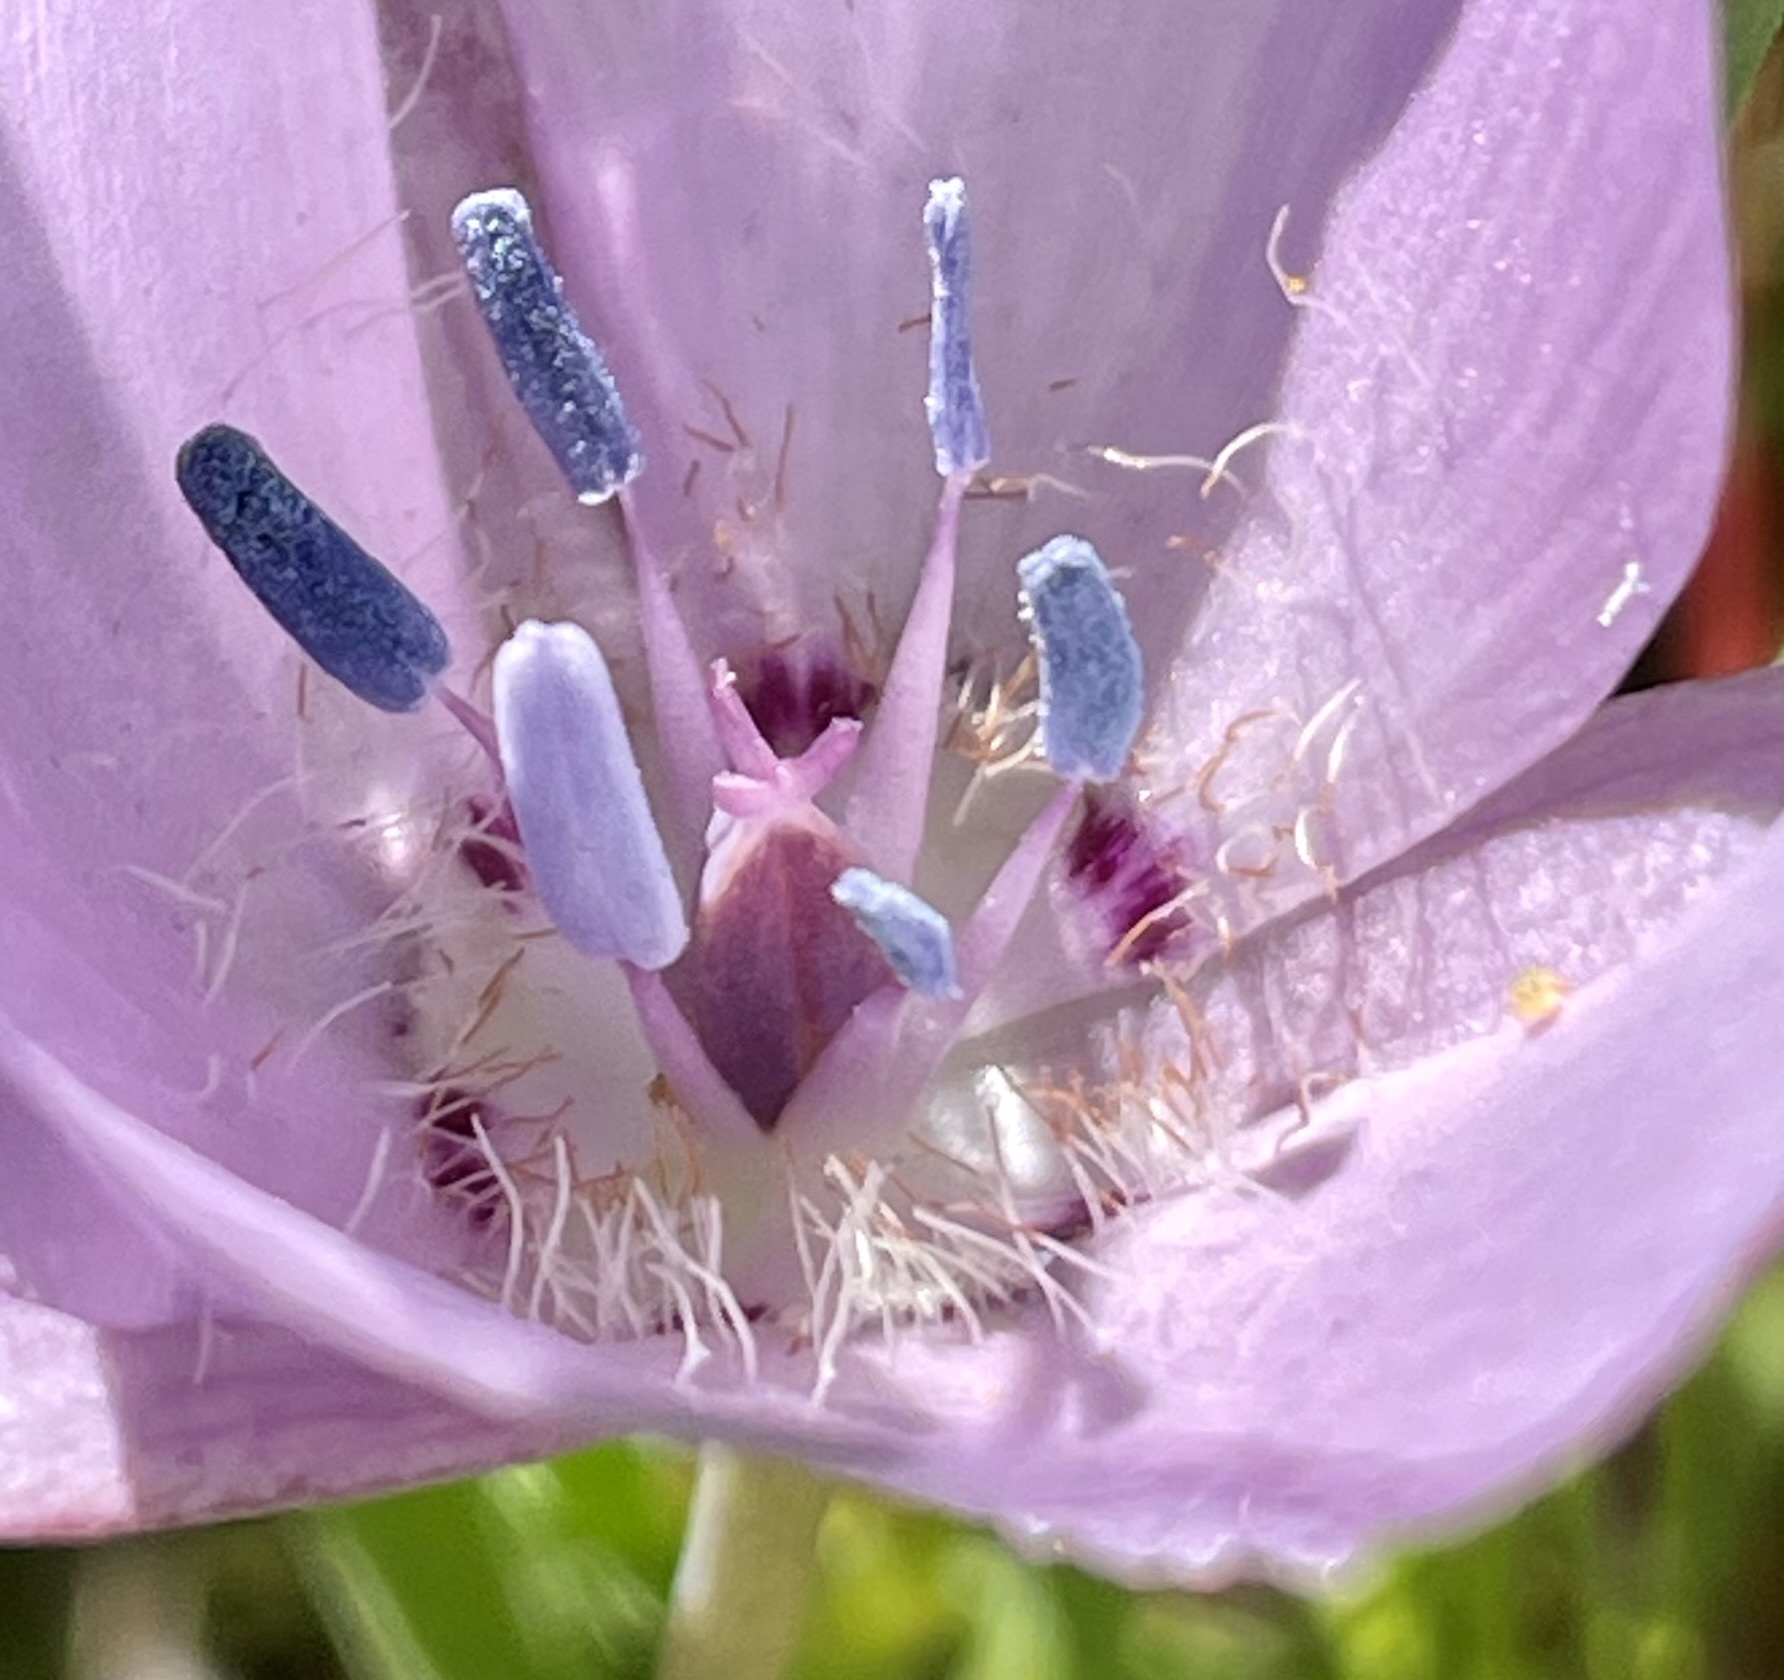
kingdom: Plantae
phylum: Tracheophyta
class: Liliopsida
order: Liliales
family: Liliaceae
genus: Calochortus
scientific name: Calochortus uniflorus
